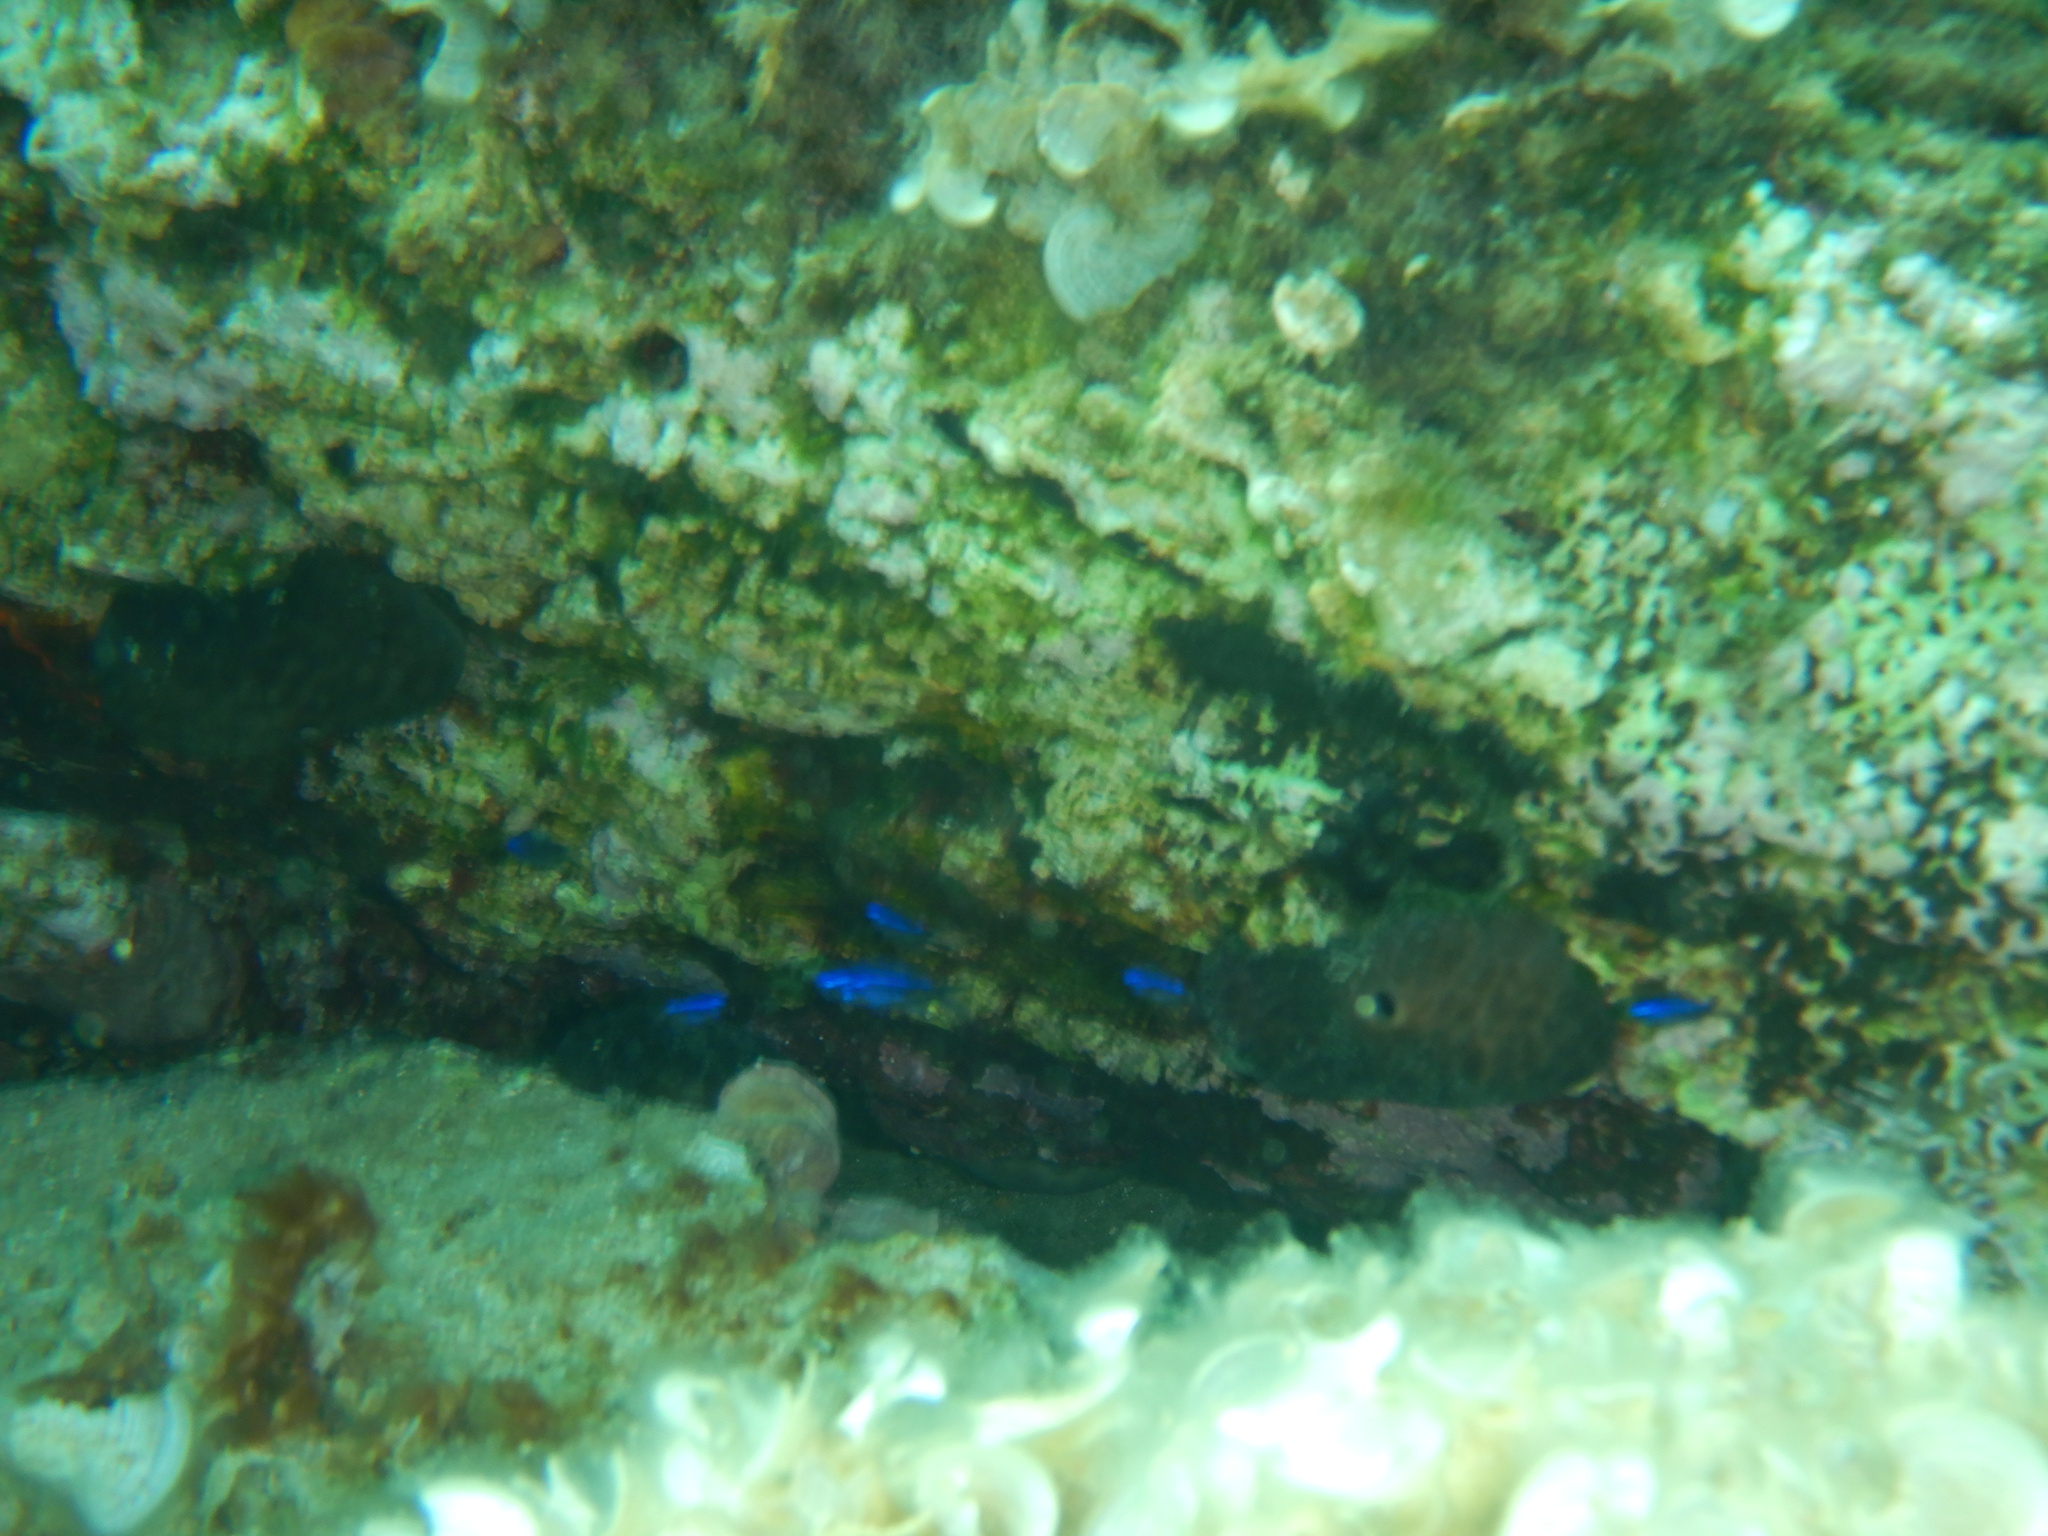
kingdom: Animalia
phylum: Chordata
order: Perciformes
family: Pomacentridae
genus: Chromis
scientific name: Chromis chromis
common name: Damselfish
